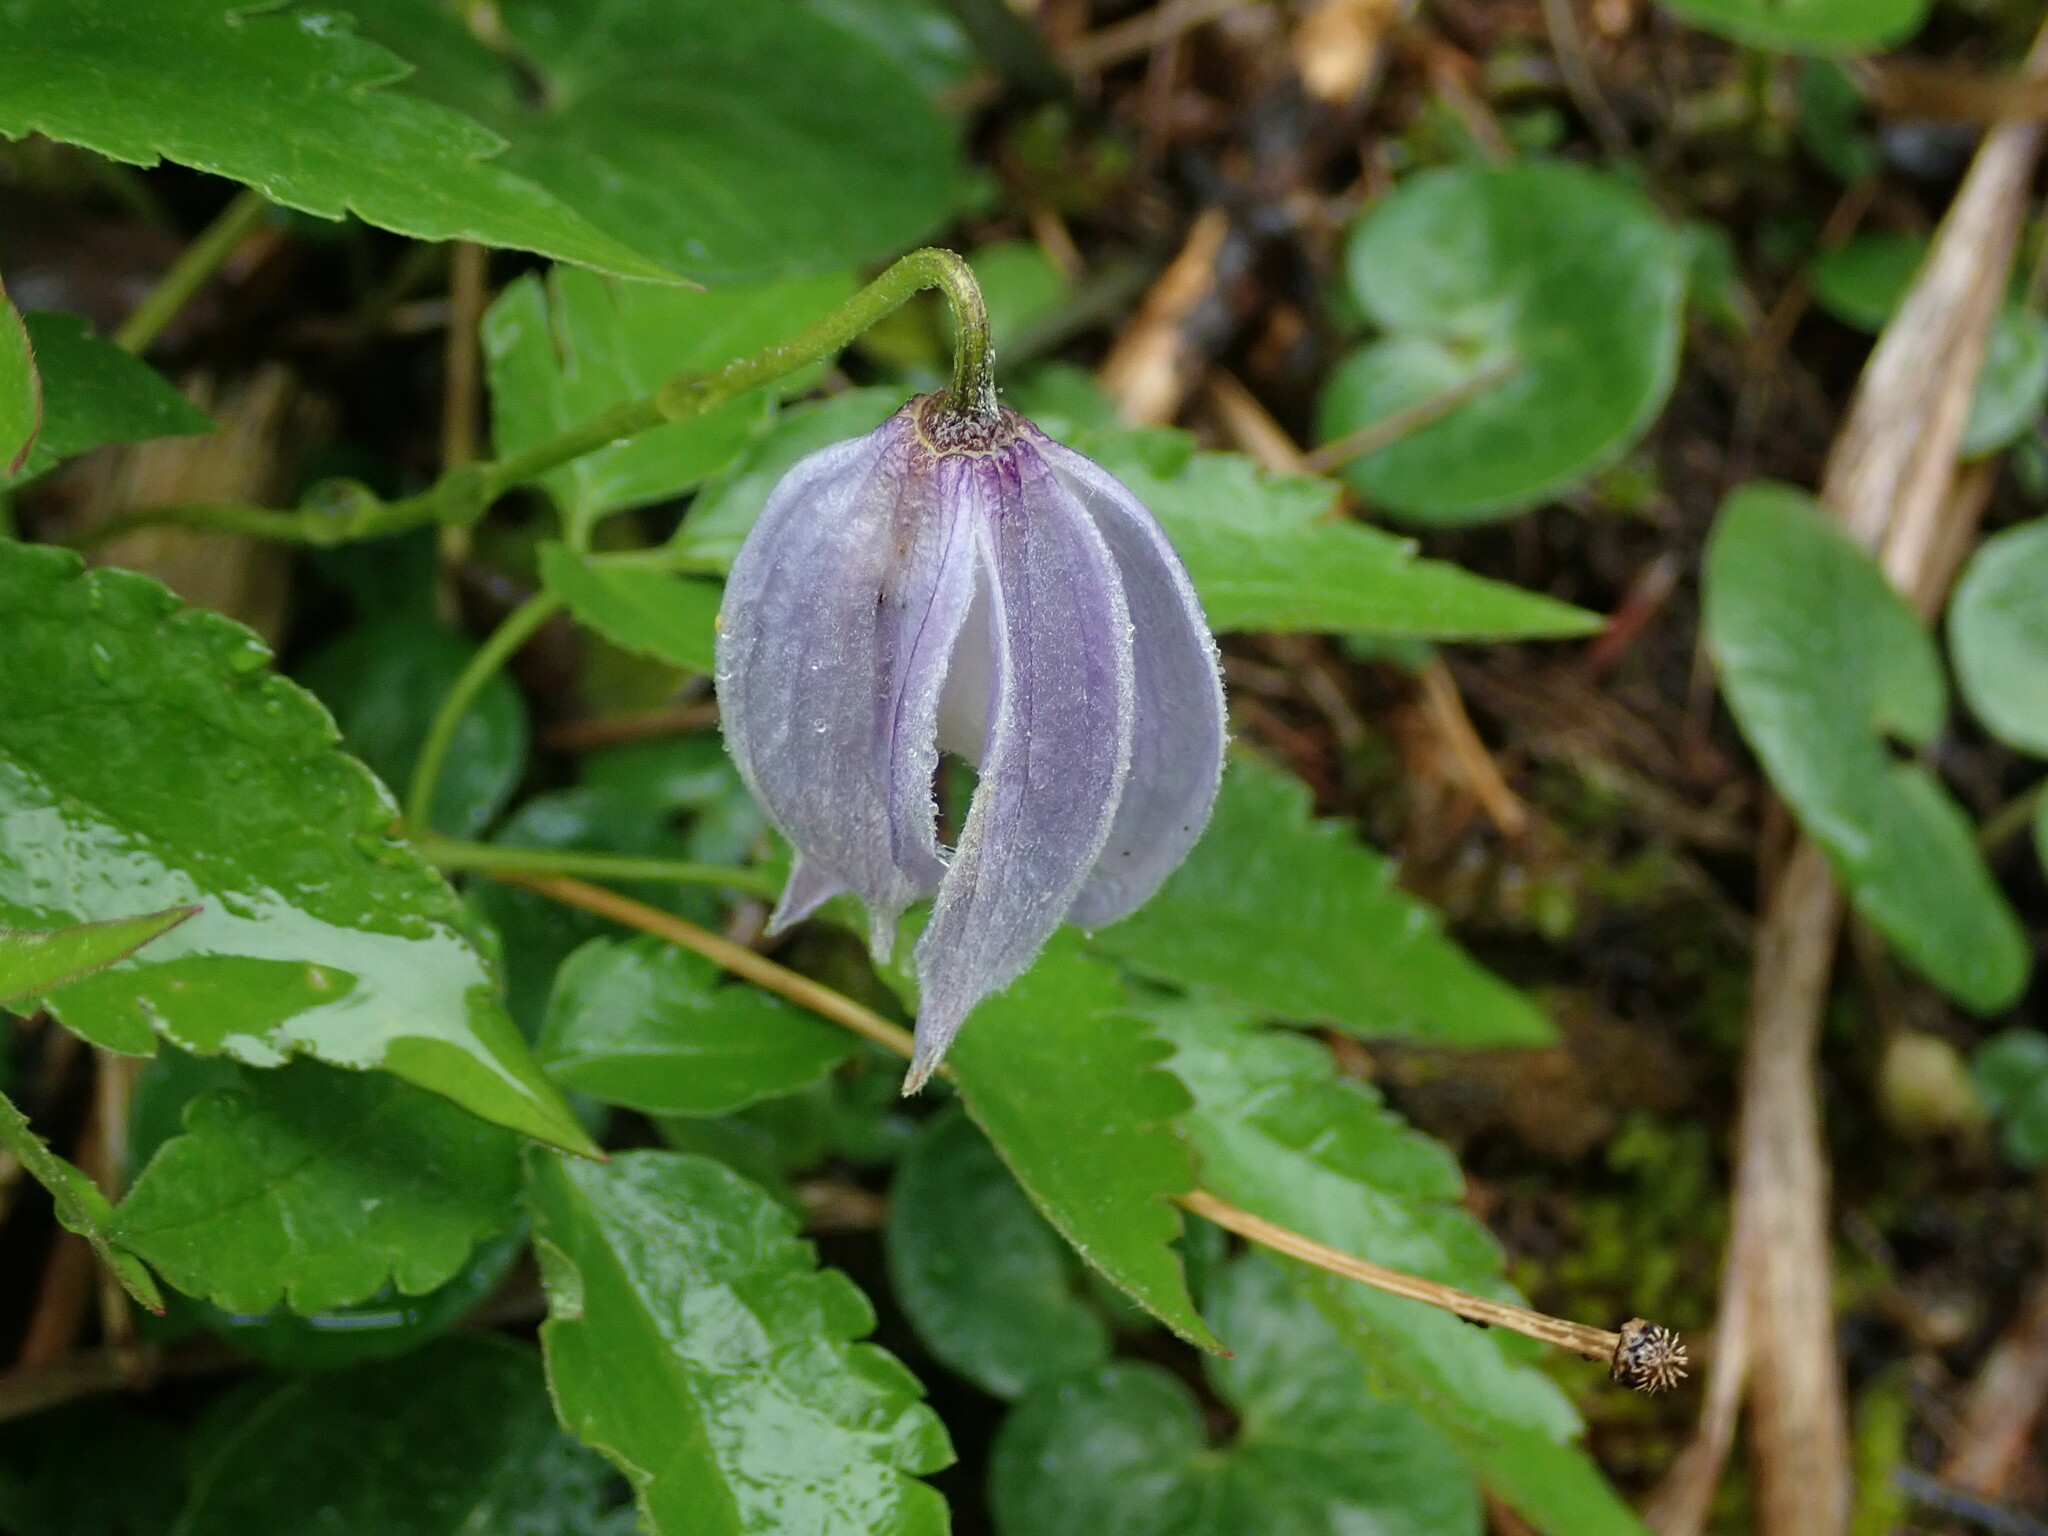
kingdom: Plantae
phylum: Tracheophyta
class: Magnoliopsida
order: Ranunculales
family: Ranunculaceae
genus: Clematis
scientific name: Clematis alpina
